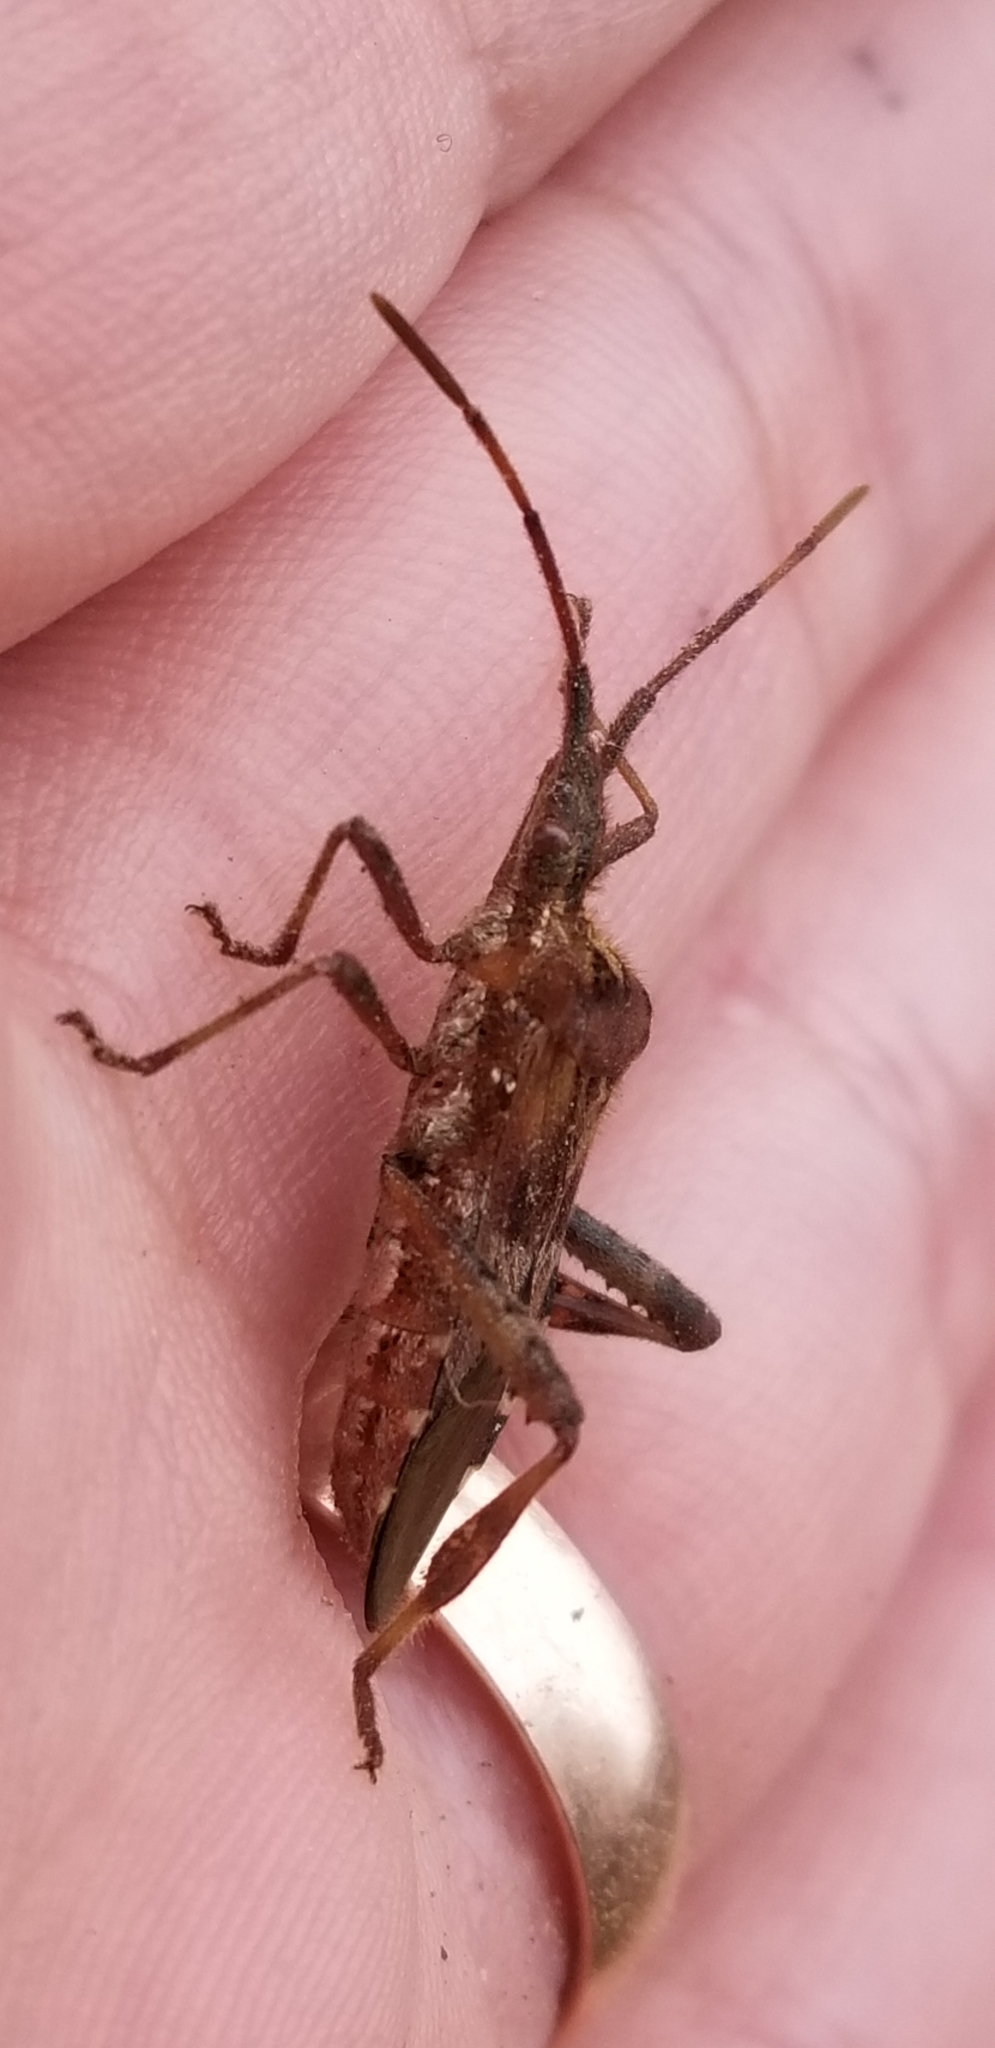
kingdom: Animalia
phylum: Arthropoda
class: Insecta
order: Hemiptera
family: Coreidae
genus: Leptoglossus
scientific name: Leptoglossus occidentalis
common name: Western conifer-seed bug
